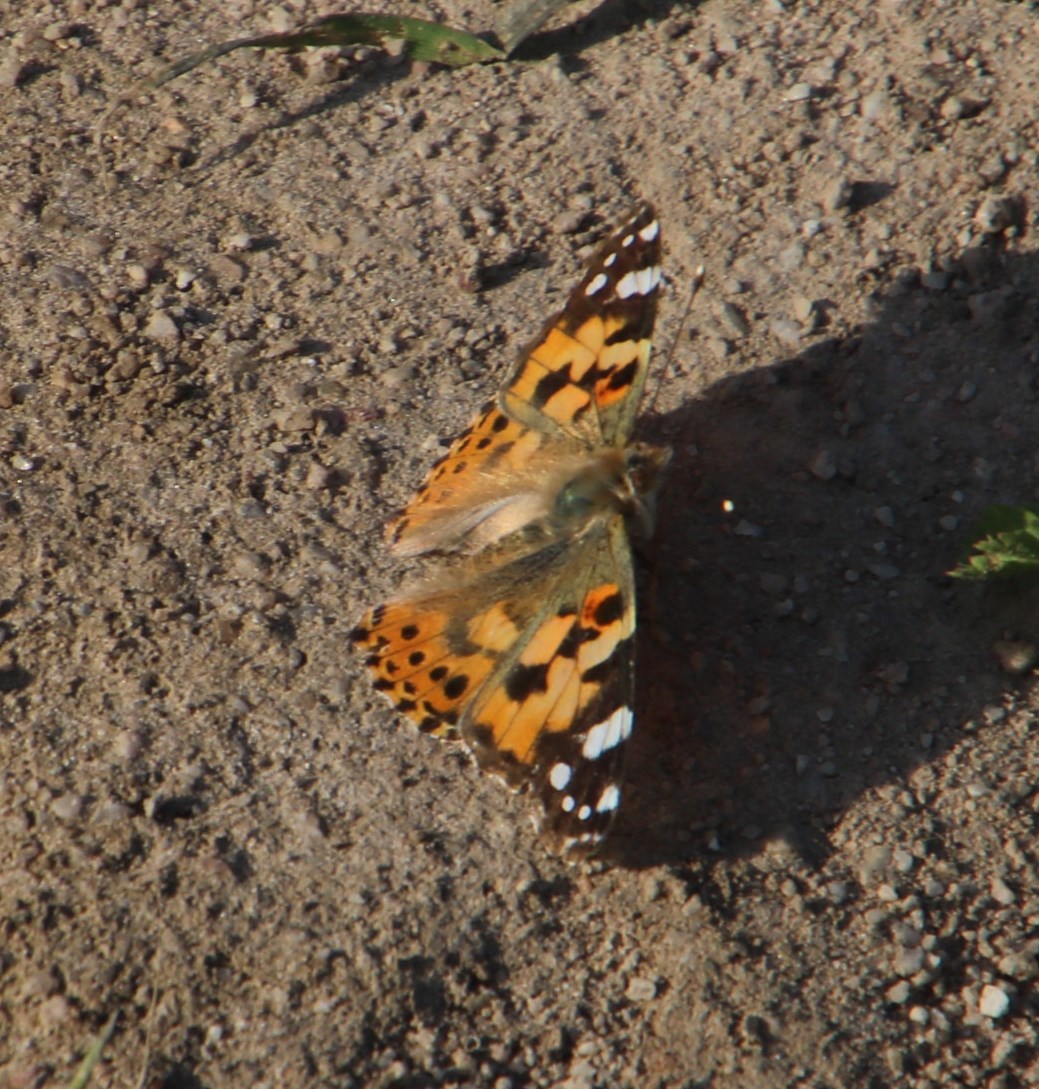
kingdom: Animalia
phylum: Arthropoda
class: Insecta
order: Lepidoptera
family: Nymphalidae
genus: Vanessa
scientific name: Vanessa cardui
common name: Painted lady
